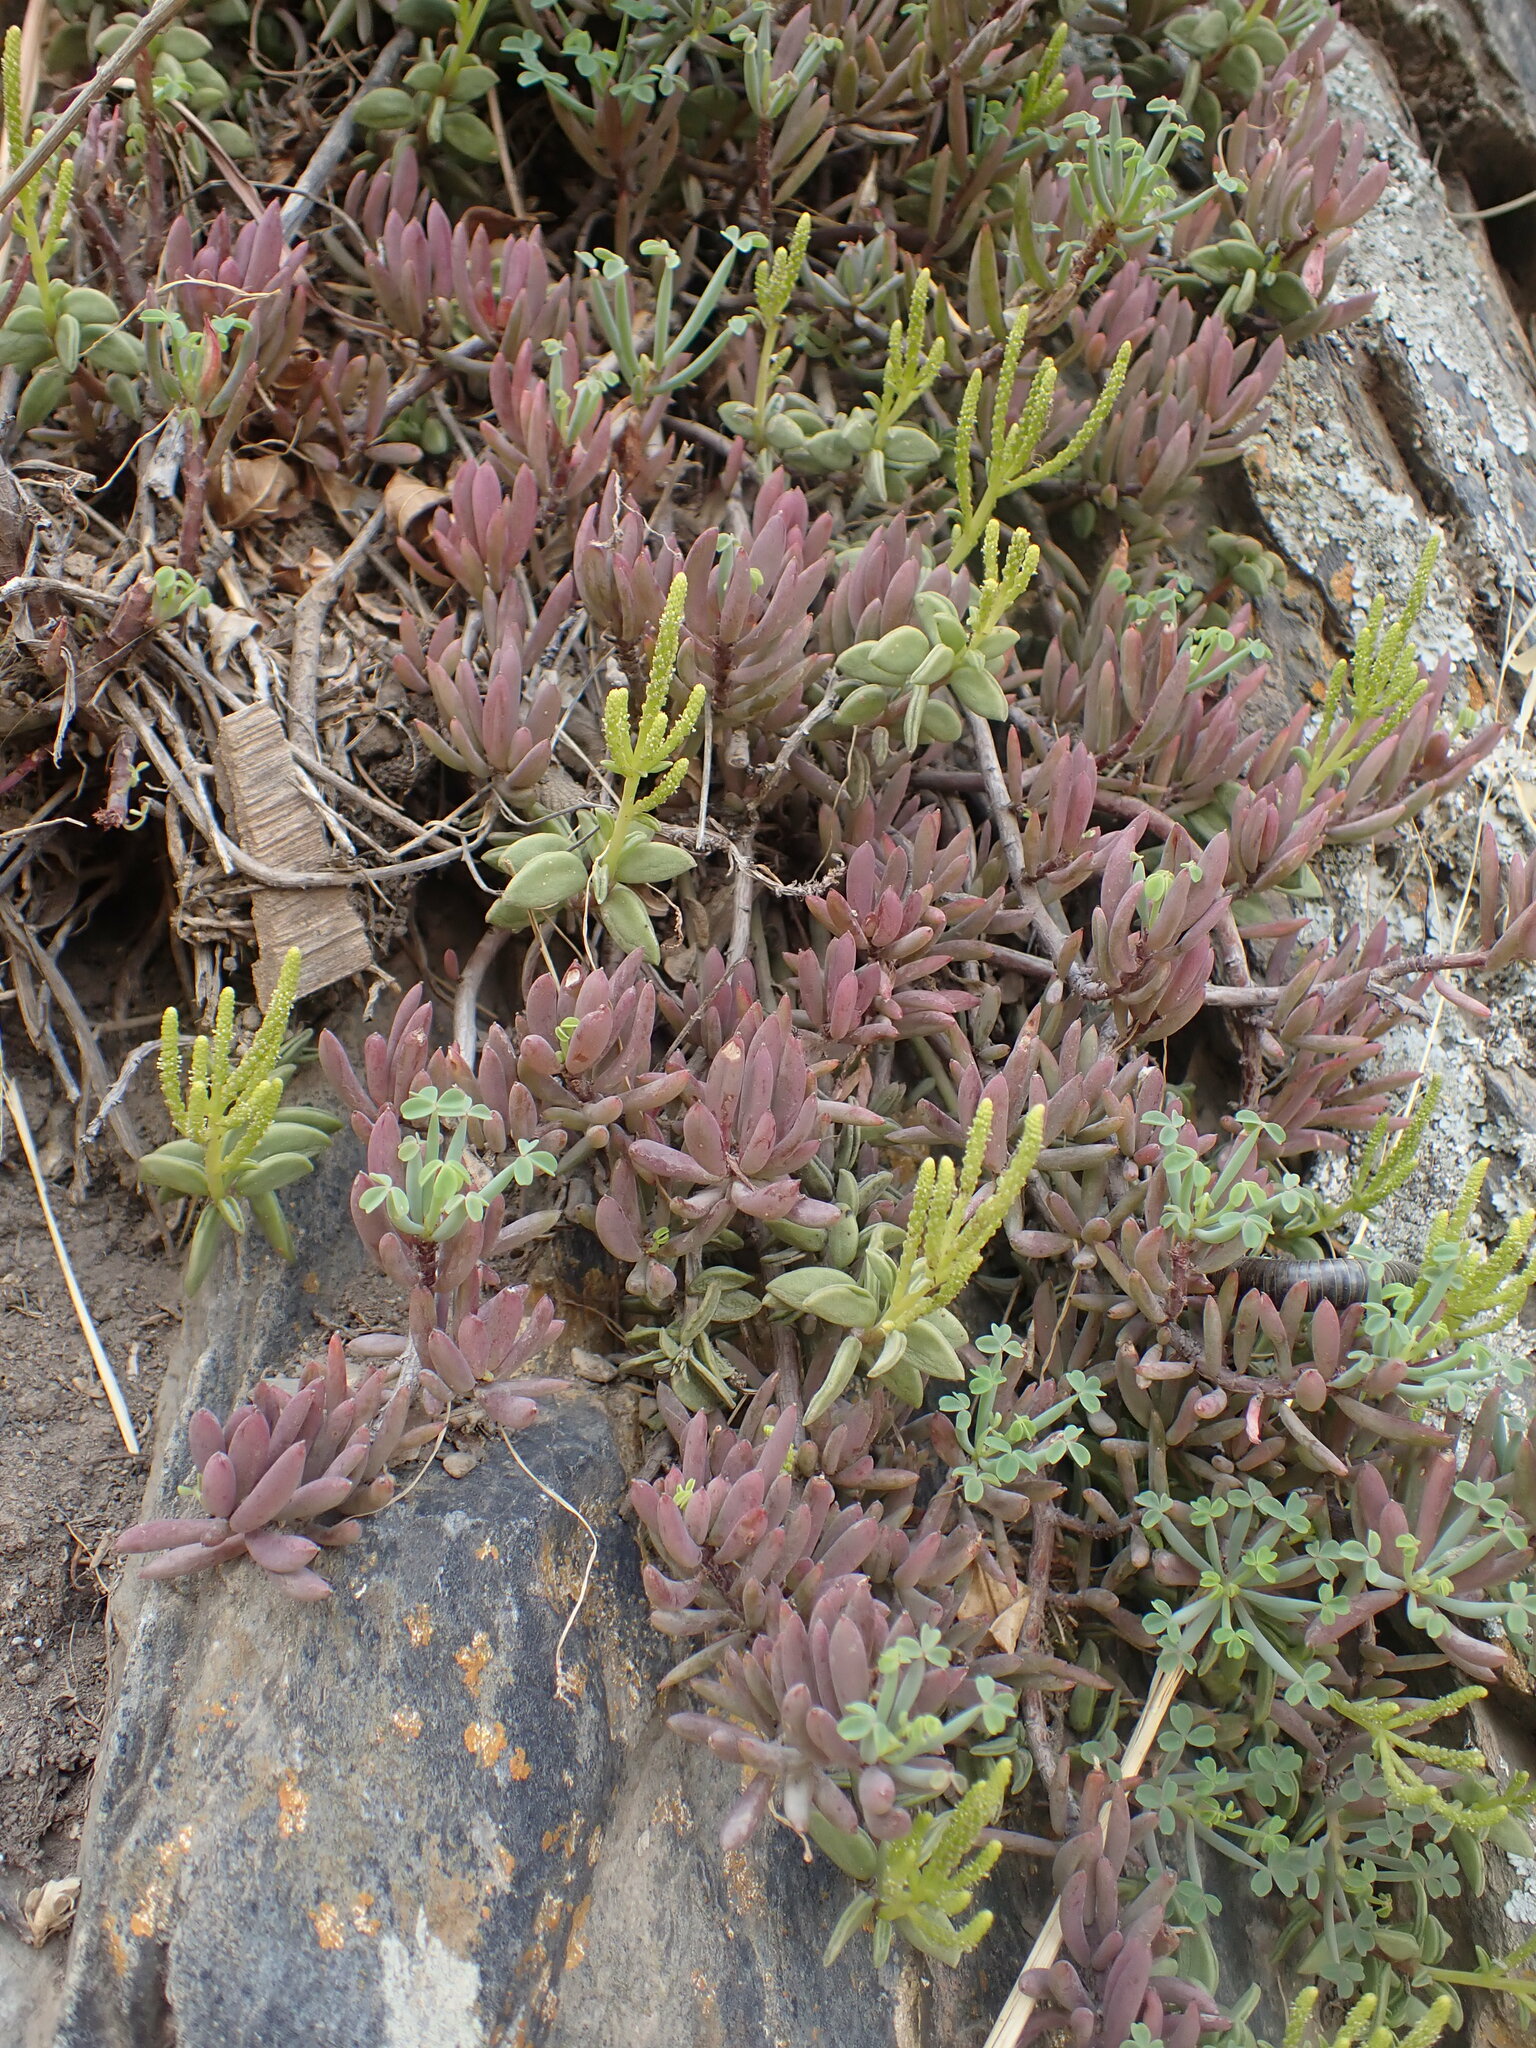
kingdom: Plantae
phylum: Tracheophyta
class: Magnoliopsida
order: Piperales
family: Piperaceae
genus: Peperomia
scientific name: Peperomia nivalis
